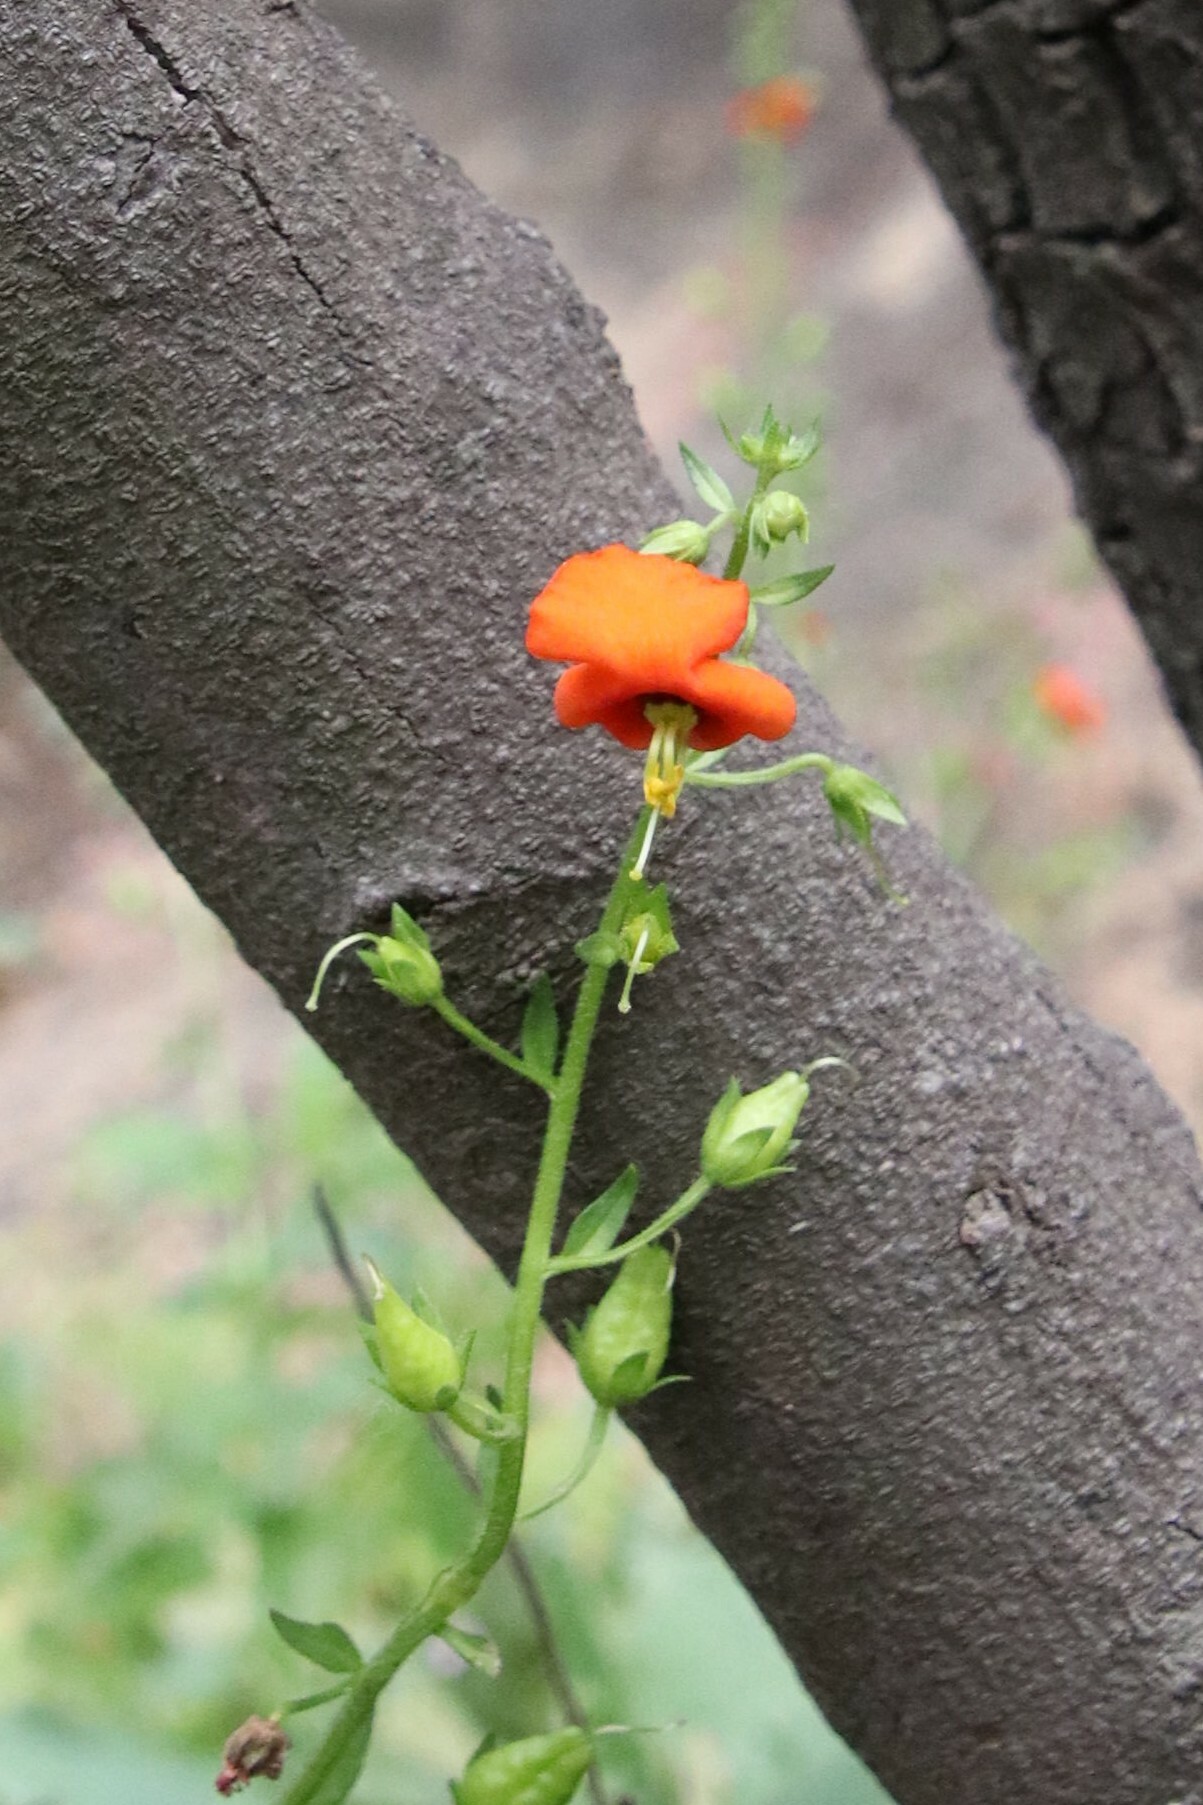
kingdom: Plantae
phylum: Tracheophyta
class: Magnoliopsida
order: Lamiales
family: Scrophulariaceae
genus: Alonsoa
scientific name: Alonsoa meridionalis
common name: Maskflower
